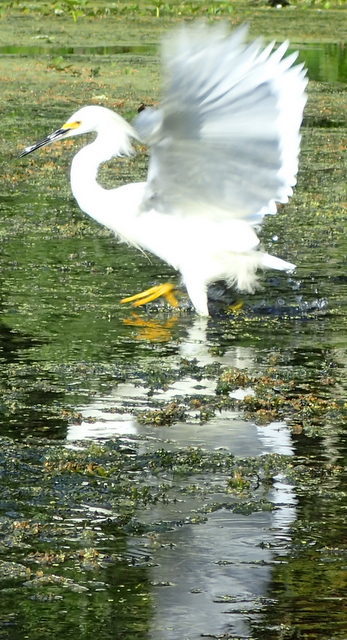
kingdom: Animalia
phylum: Chordata
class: Aves
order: Pelecaniformes
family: Ardeidae
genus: Egretta
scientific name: Egretta thula
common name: Snowy egret
